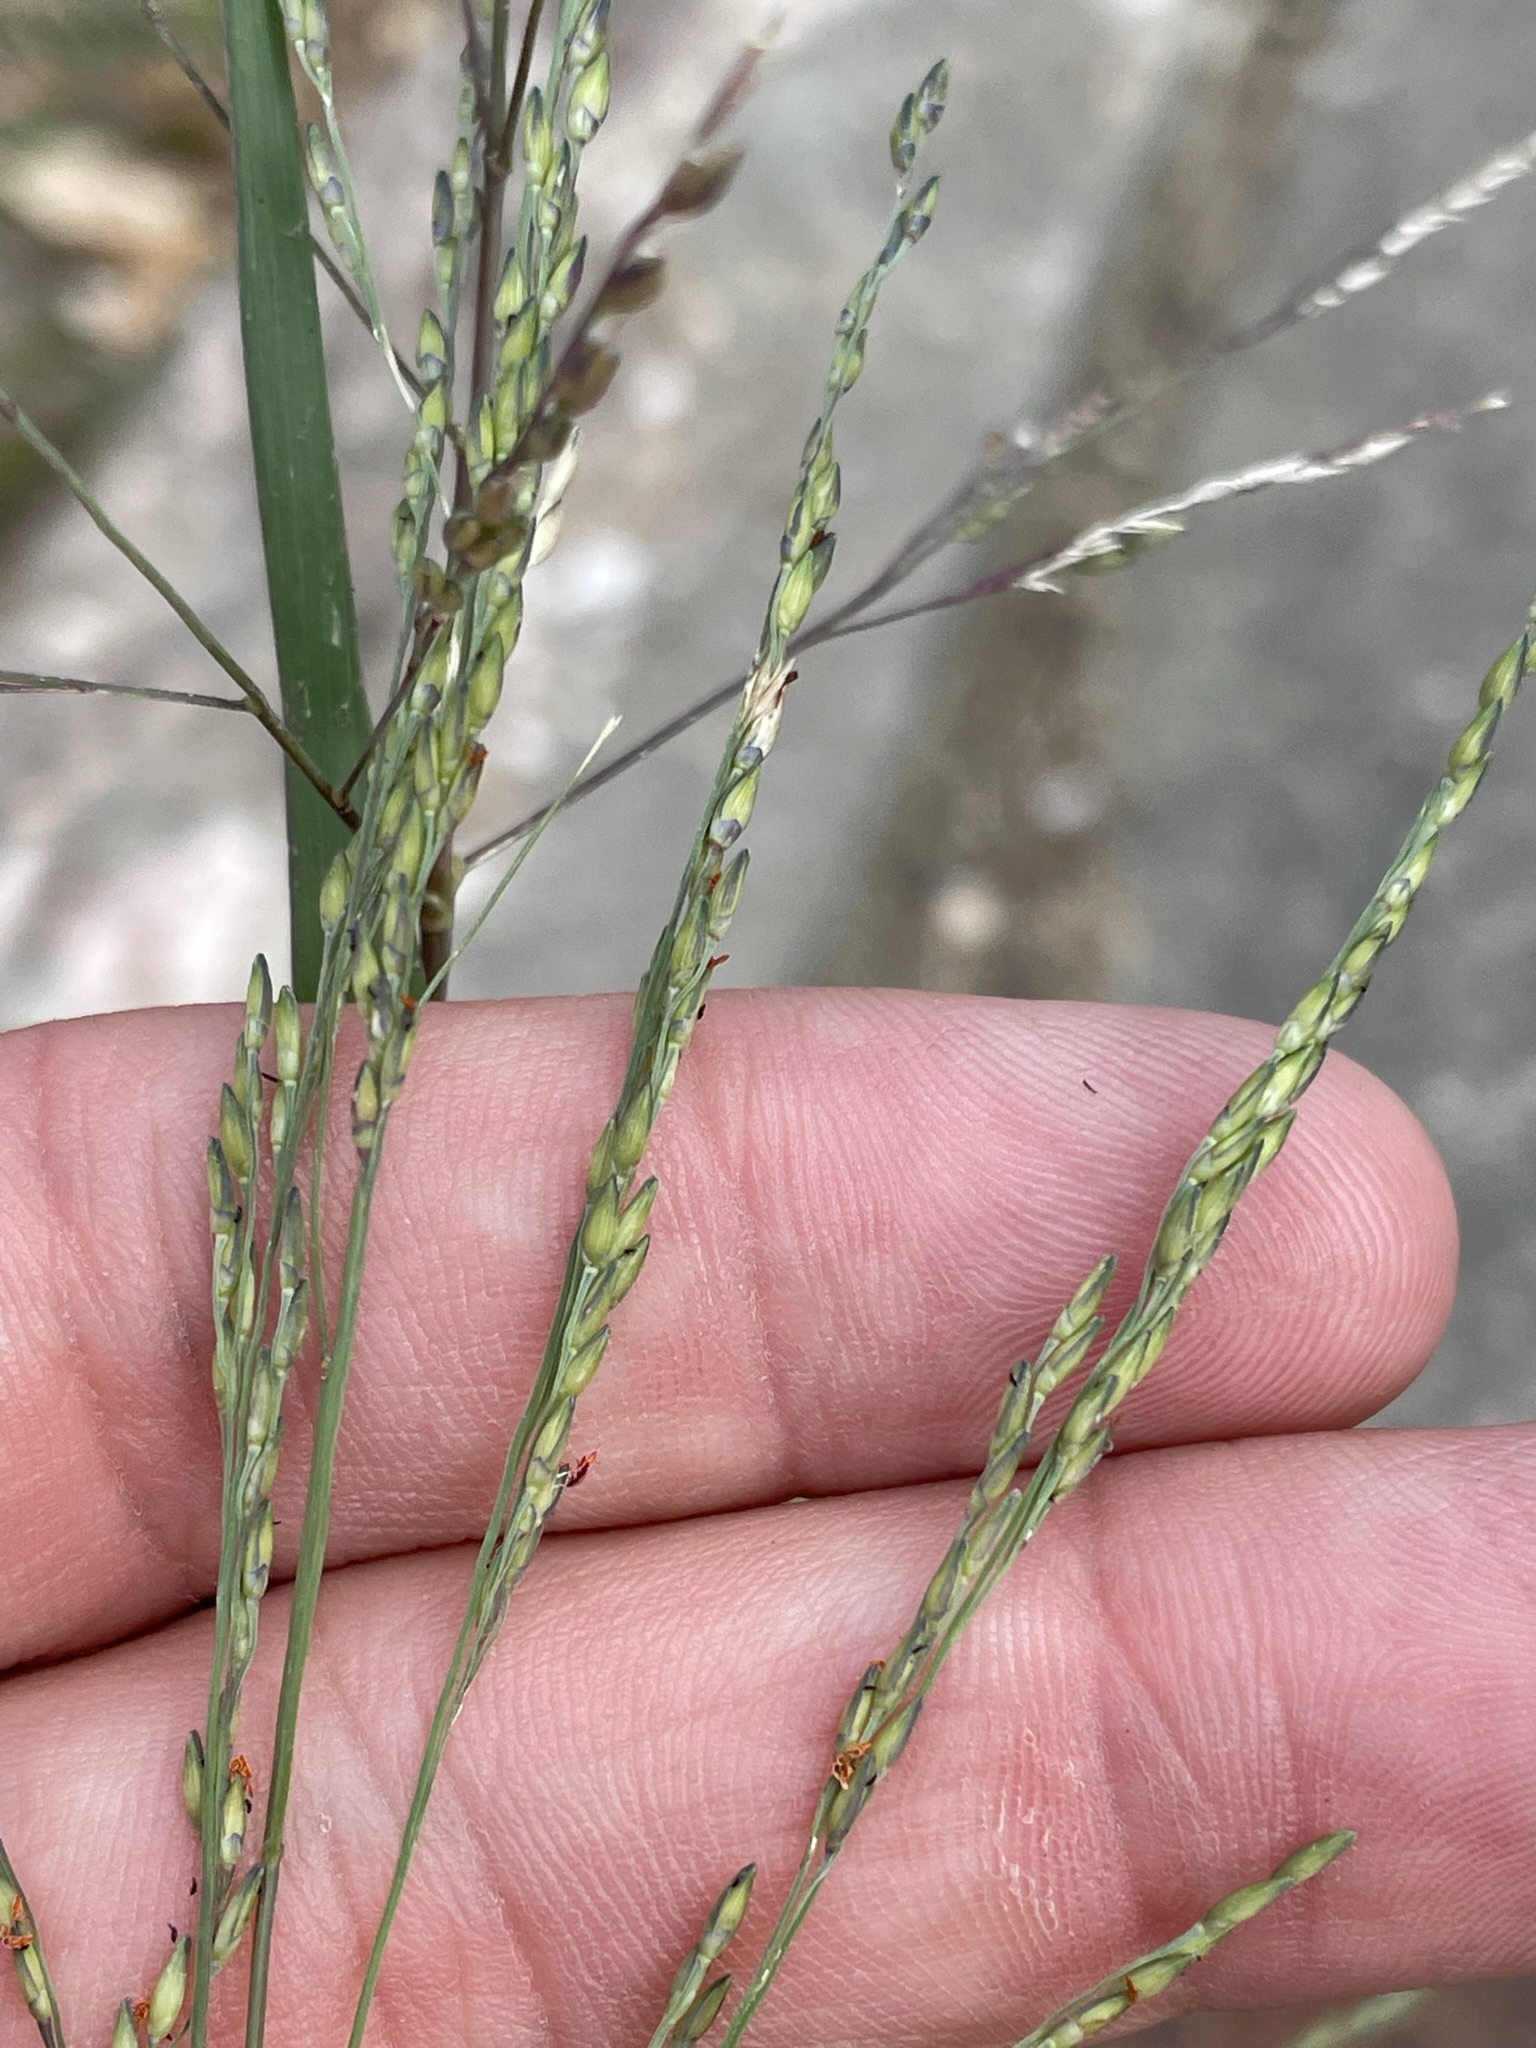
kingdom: Plantae
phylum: Tracheophyta
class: Liliopsida
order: Poales
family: Poaceae
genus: Panicum
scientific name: Panicum dichotomiflorum
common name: Autumn millet
